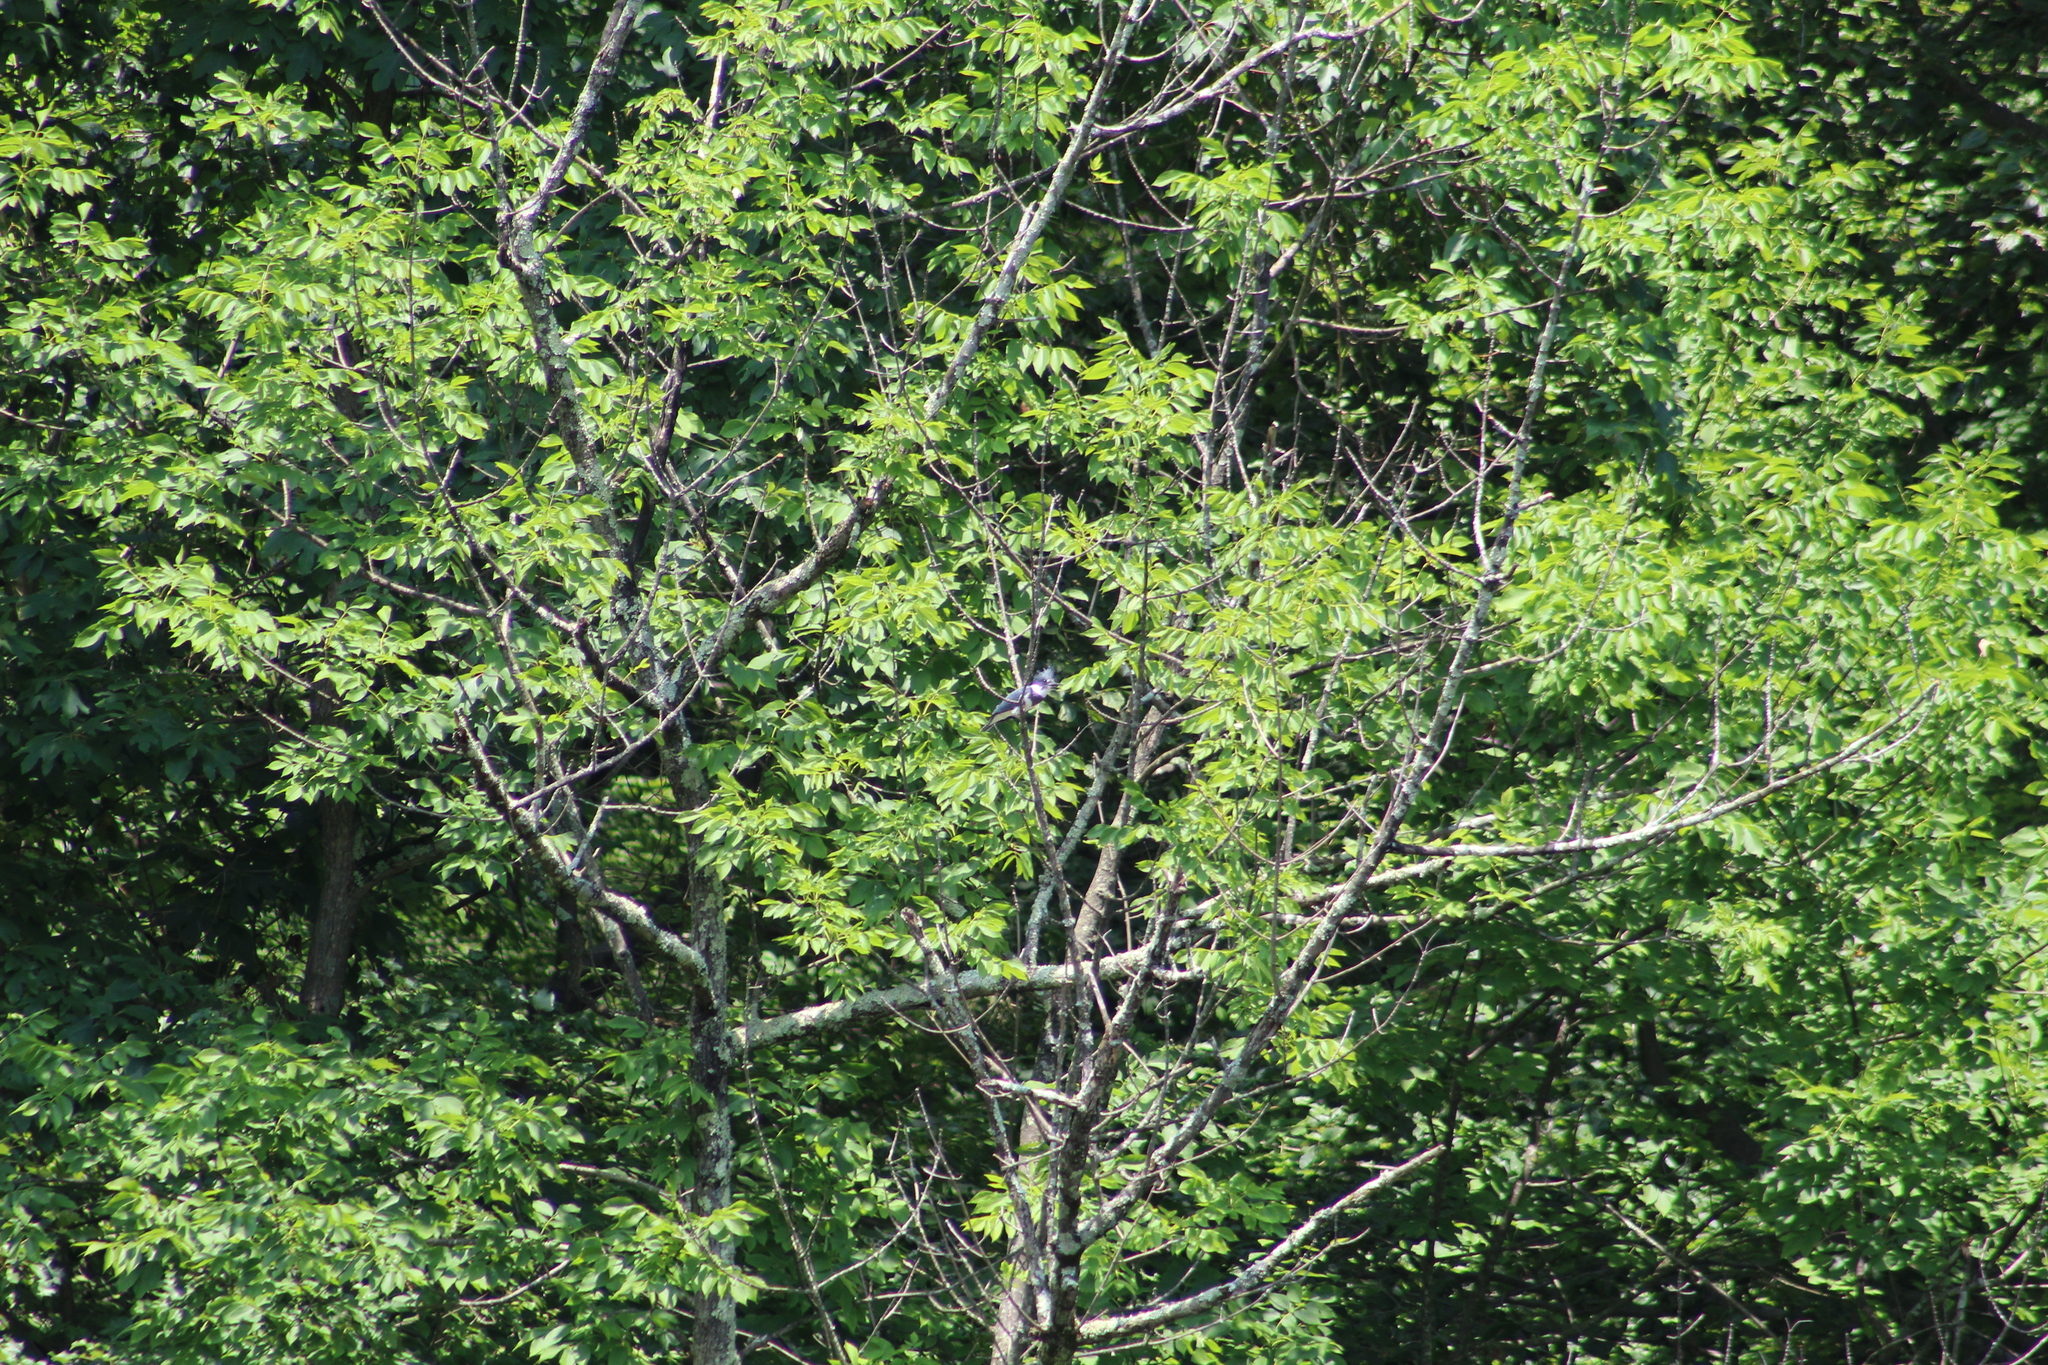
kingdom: Animalia
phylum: Chordata
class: Aves
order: Coraciiformes
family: Alcedinidae
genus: Megaceryle
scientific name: Megaceryle alcyon
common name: Belted kingfisher
